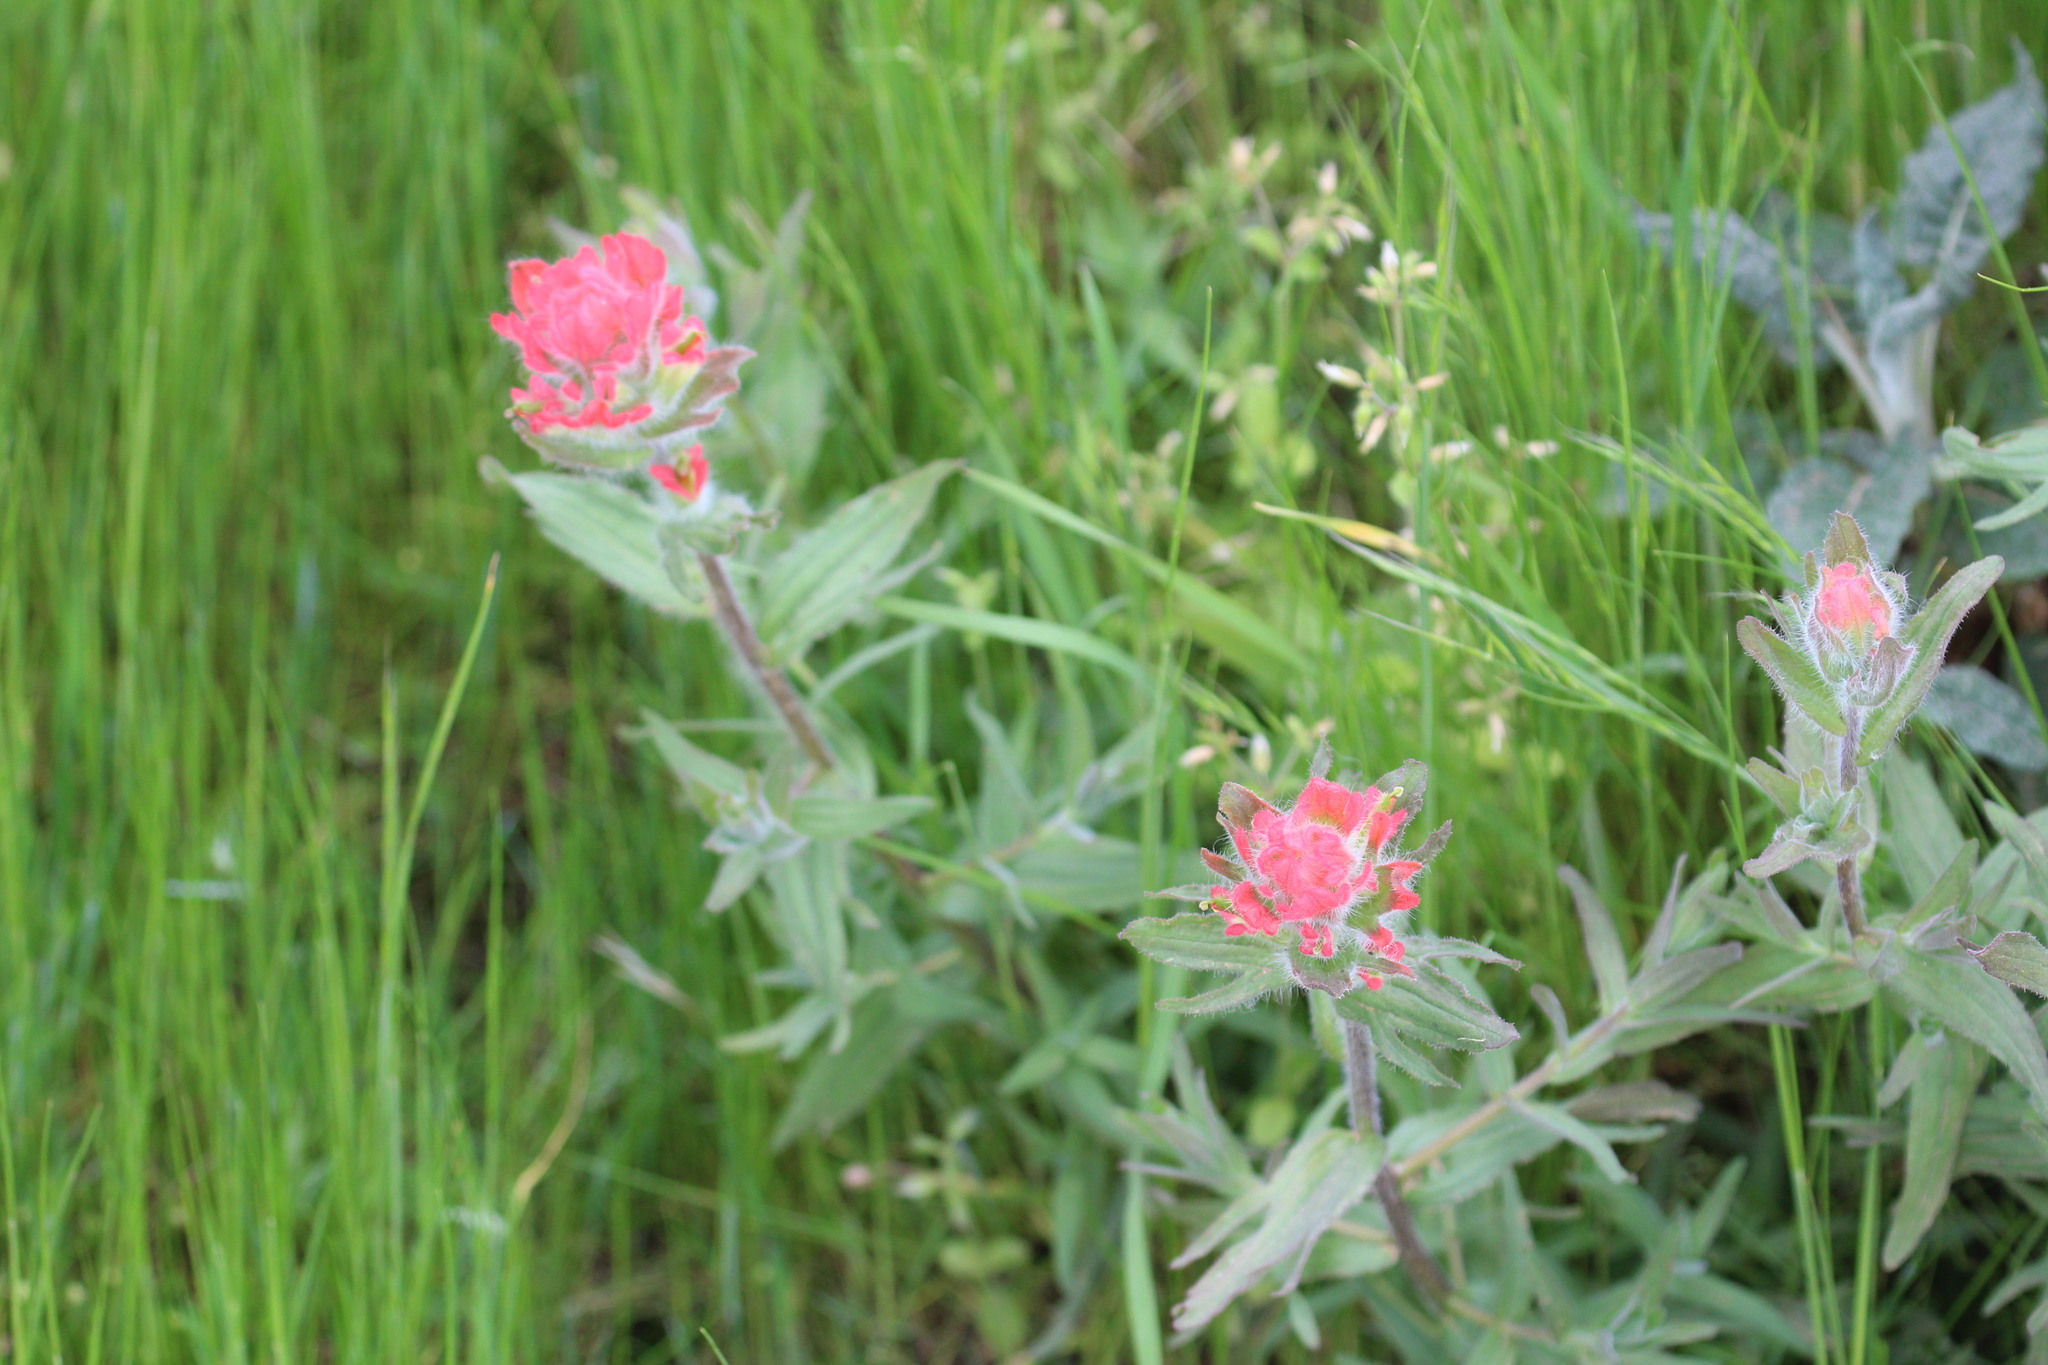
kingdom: Plantae
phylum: Tracheophyta
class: Magnoliopsida
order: Lamiales
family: Orobanchaceae
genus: Castilleja
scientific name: Castilleja affinis
